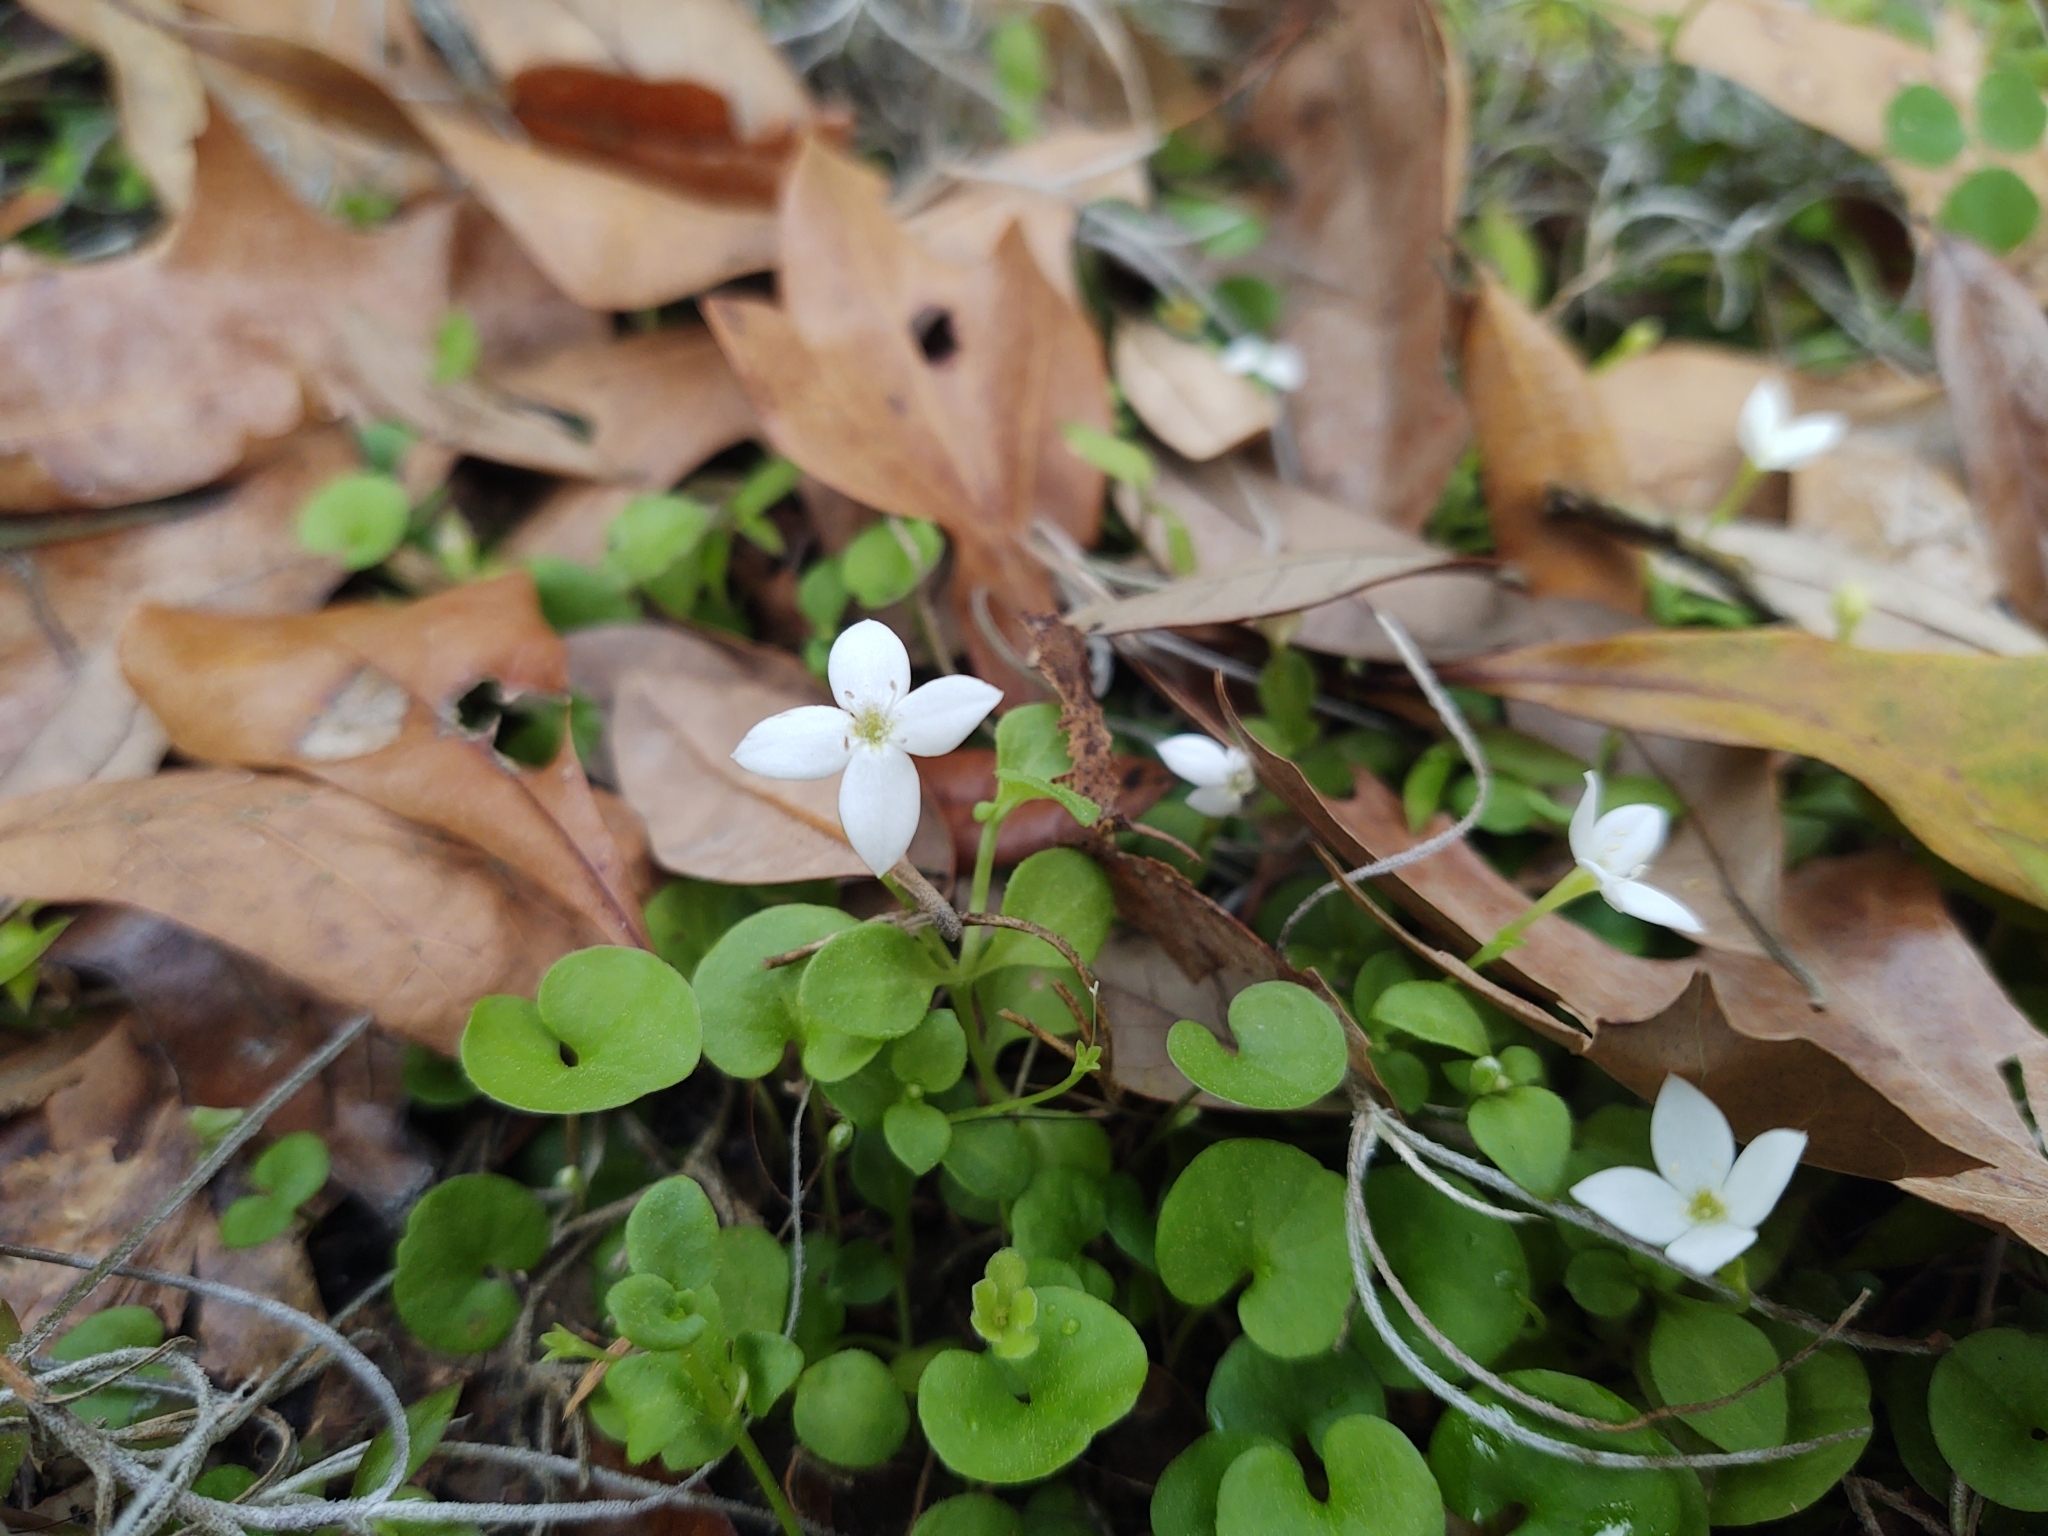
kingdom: Plantae
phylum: Tracheophyta
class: Magnoliopsida
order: Gentianales
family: Rubiaceae
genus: Houstonia
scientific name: Houstonia procumbens
